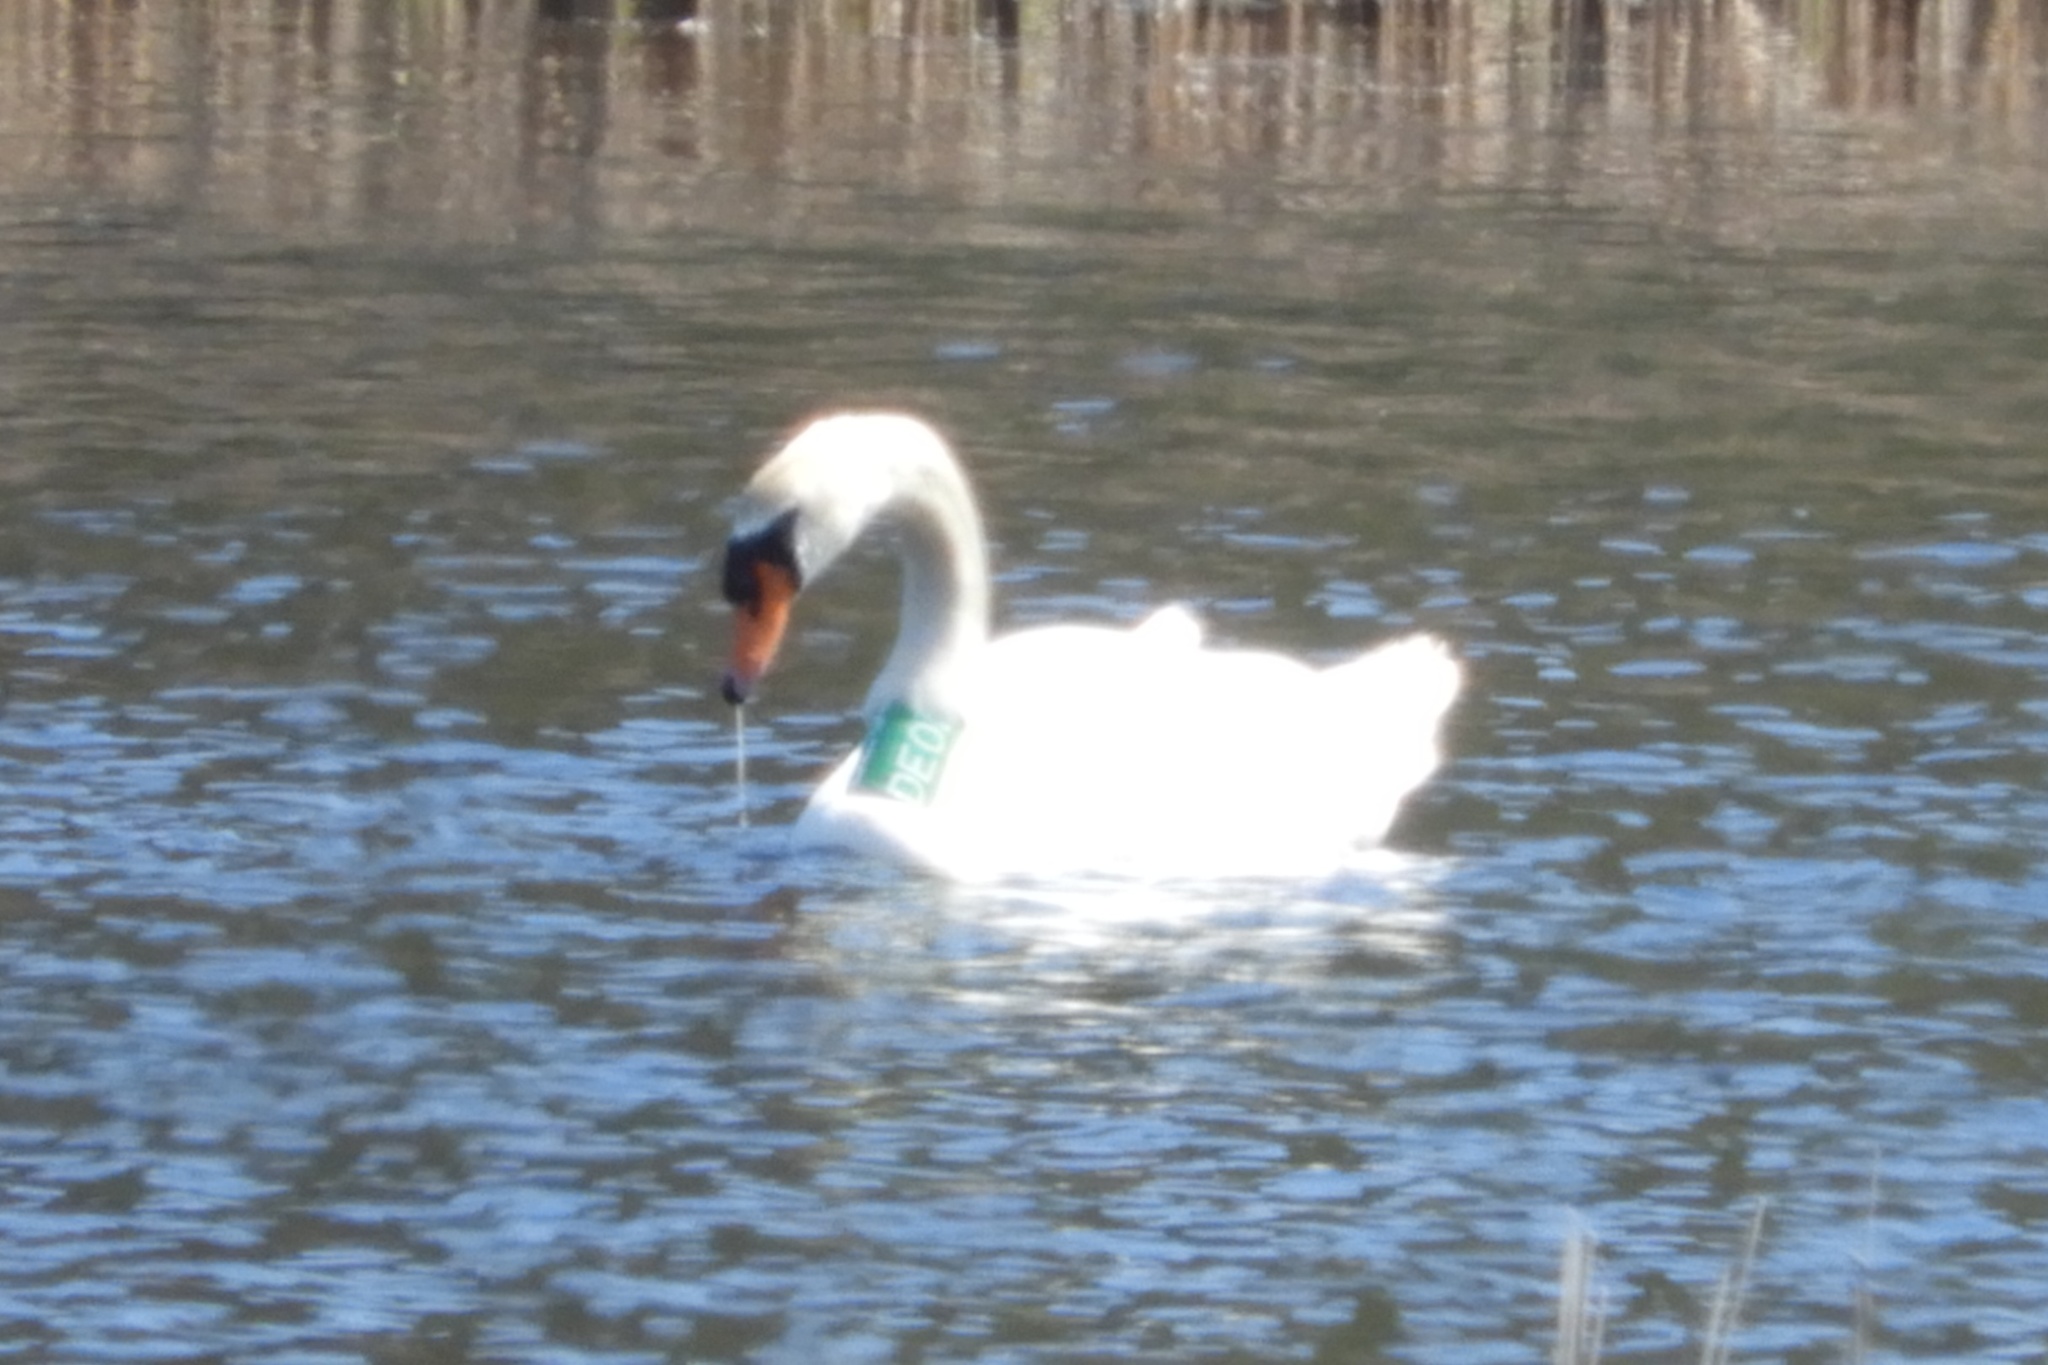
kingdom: Animalia
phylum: Chordata
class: Aves
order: Anseriformes
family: Anatidae
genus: Cygnus
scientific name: Cygnus olor
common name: Mute swan
